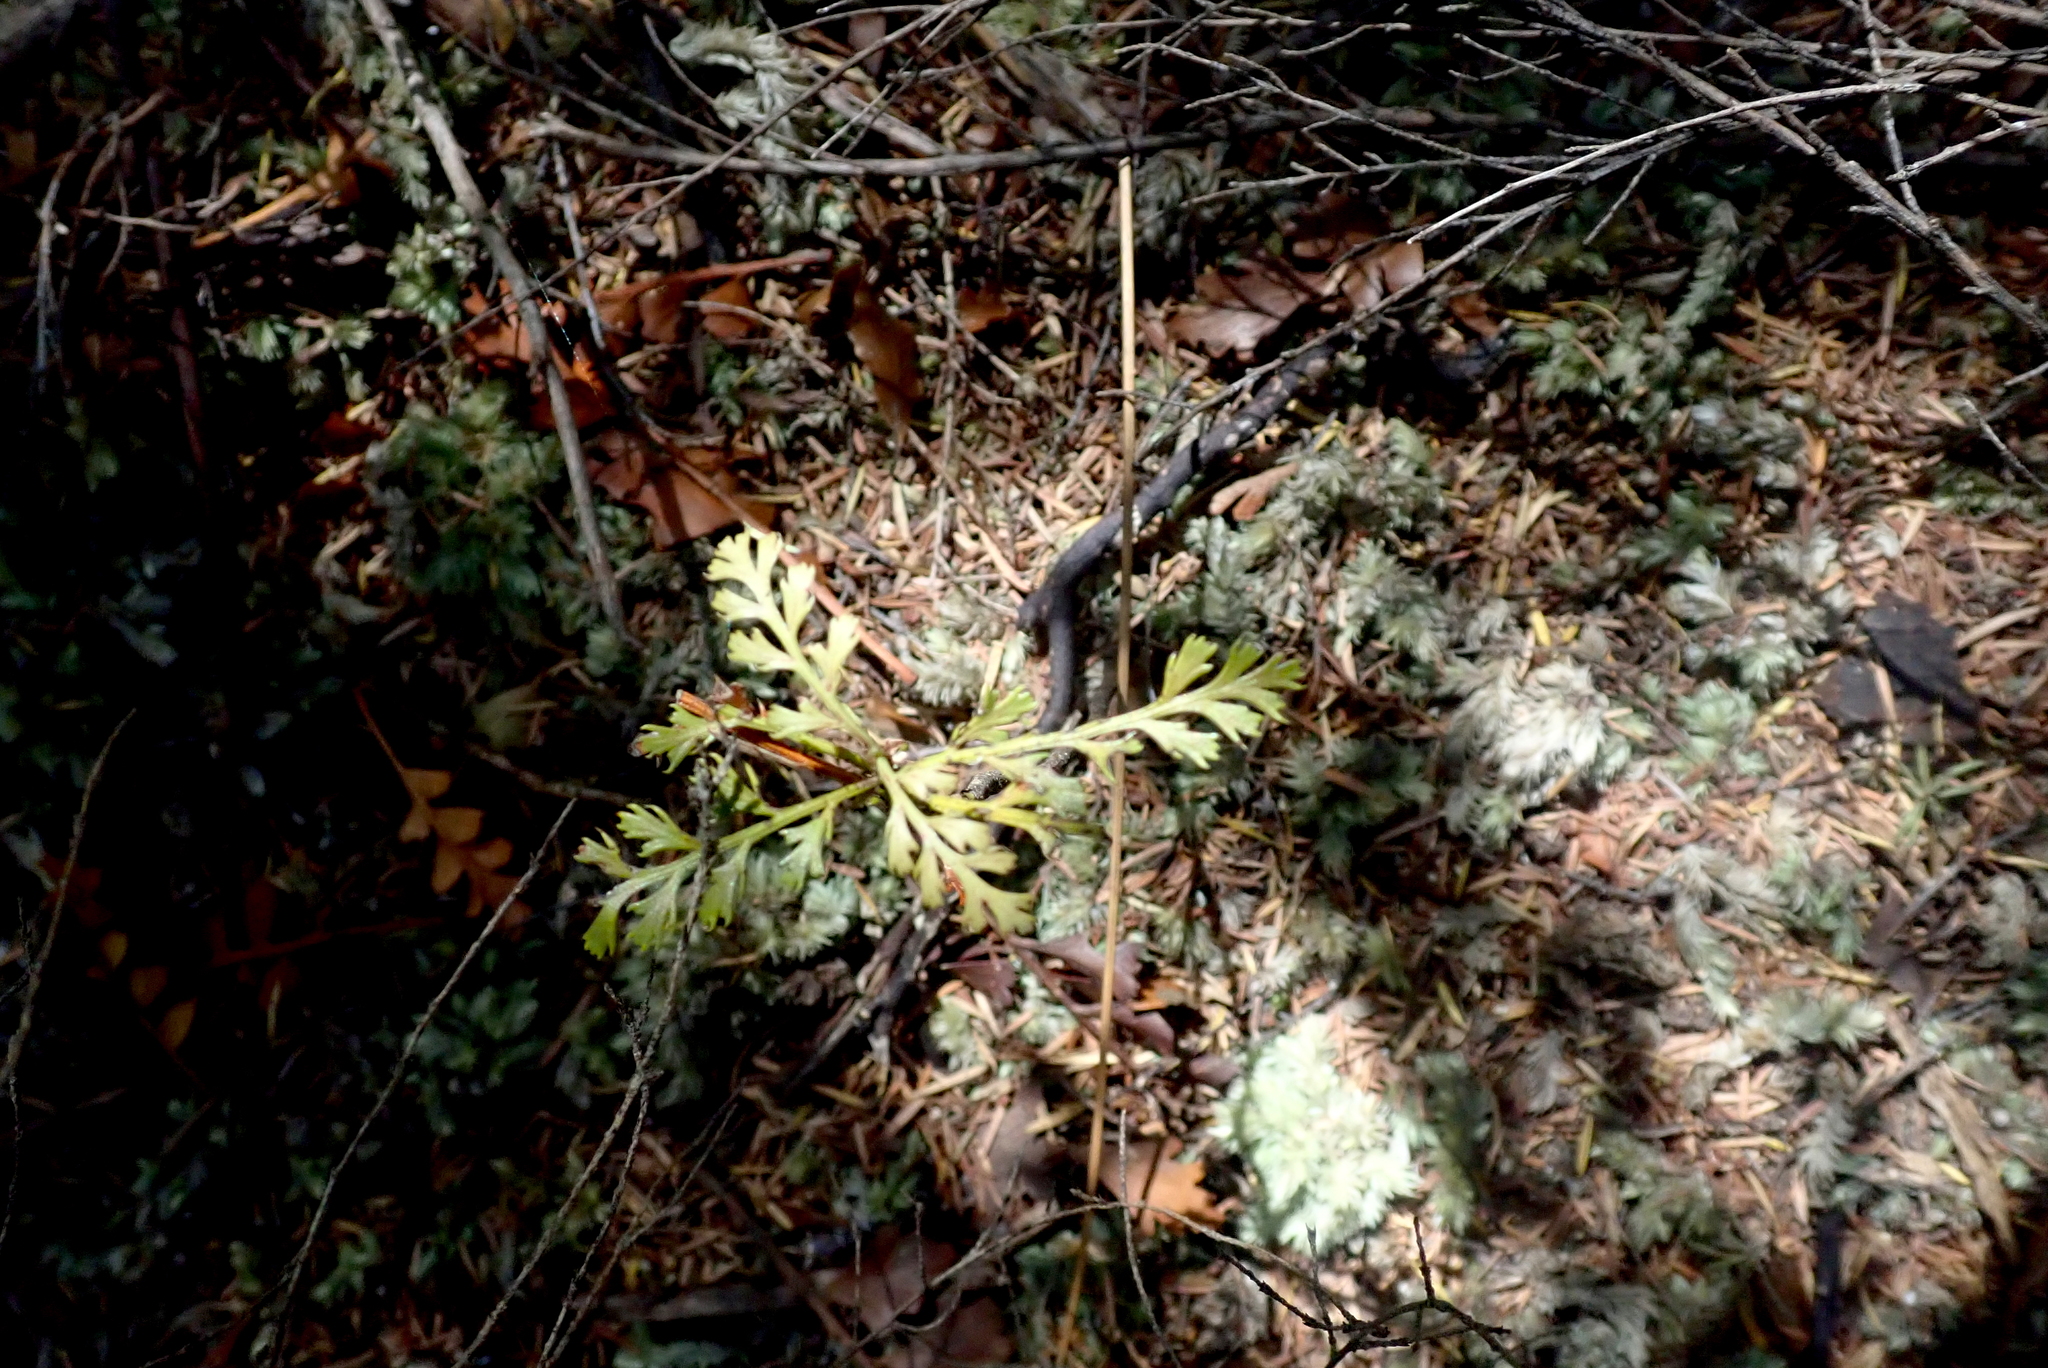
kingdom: Plantae
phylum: Tracheophyta
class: Pinopsida
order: Pinales
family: Phyllocladaceae
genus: Phyllocladus
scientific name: Phyllocladus trichomanoides
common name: Celery pine
